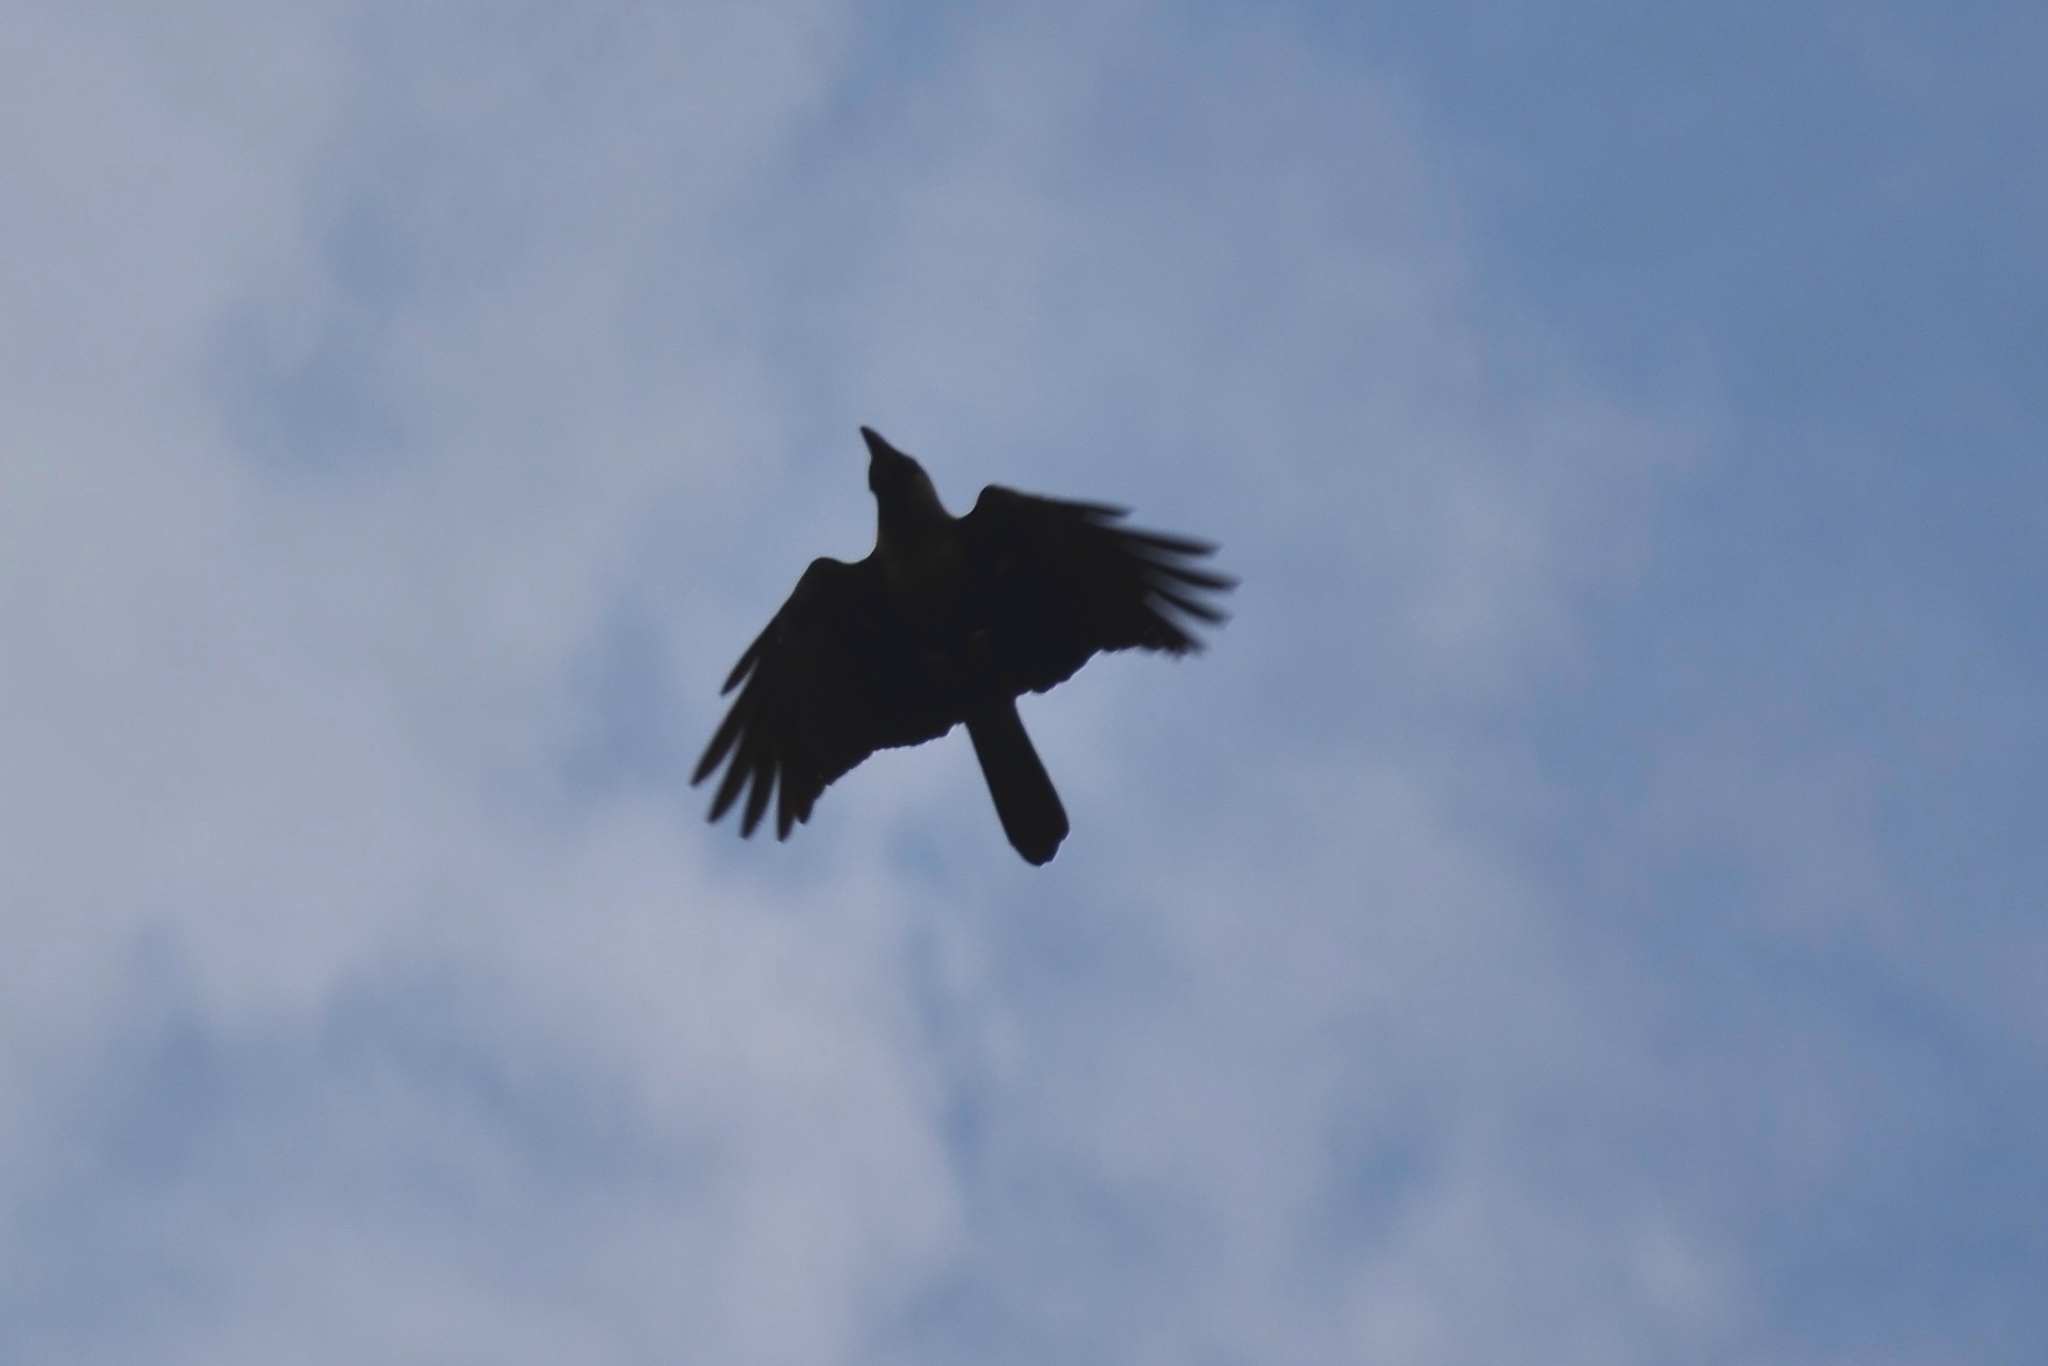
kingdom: Animalia
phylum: Chordata
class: Aves
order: Passeriformes
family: Corvidae
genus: Corvus
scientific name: Corvus splendens
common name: House crow
